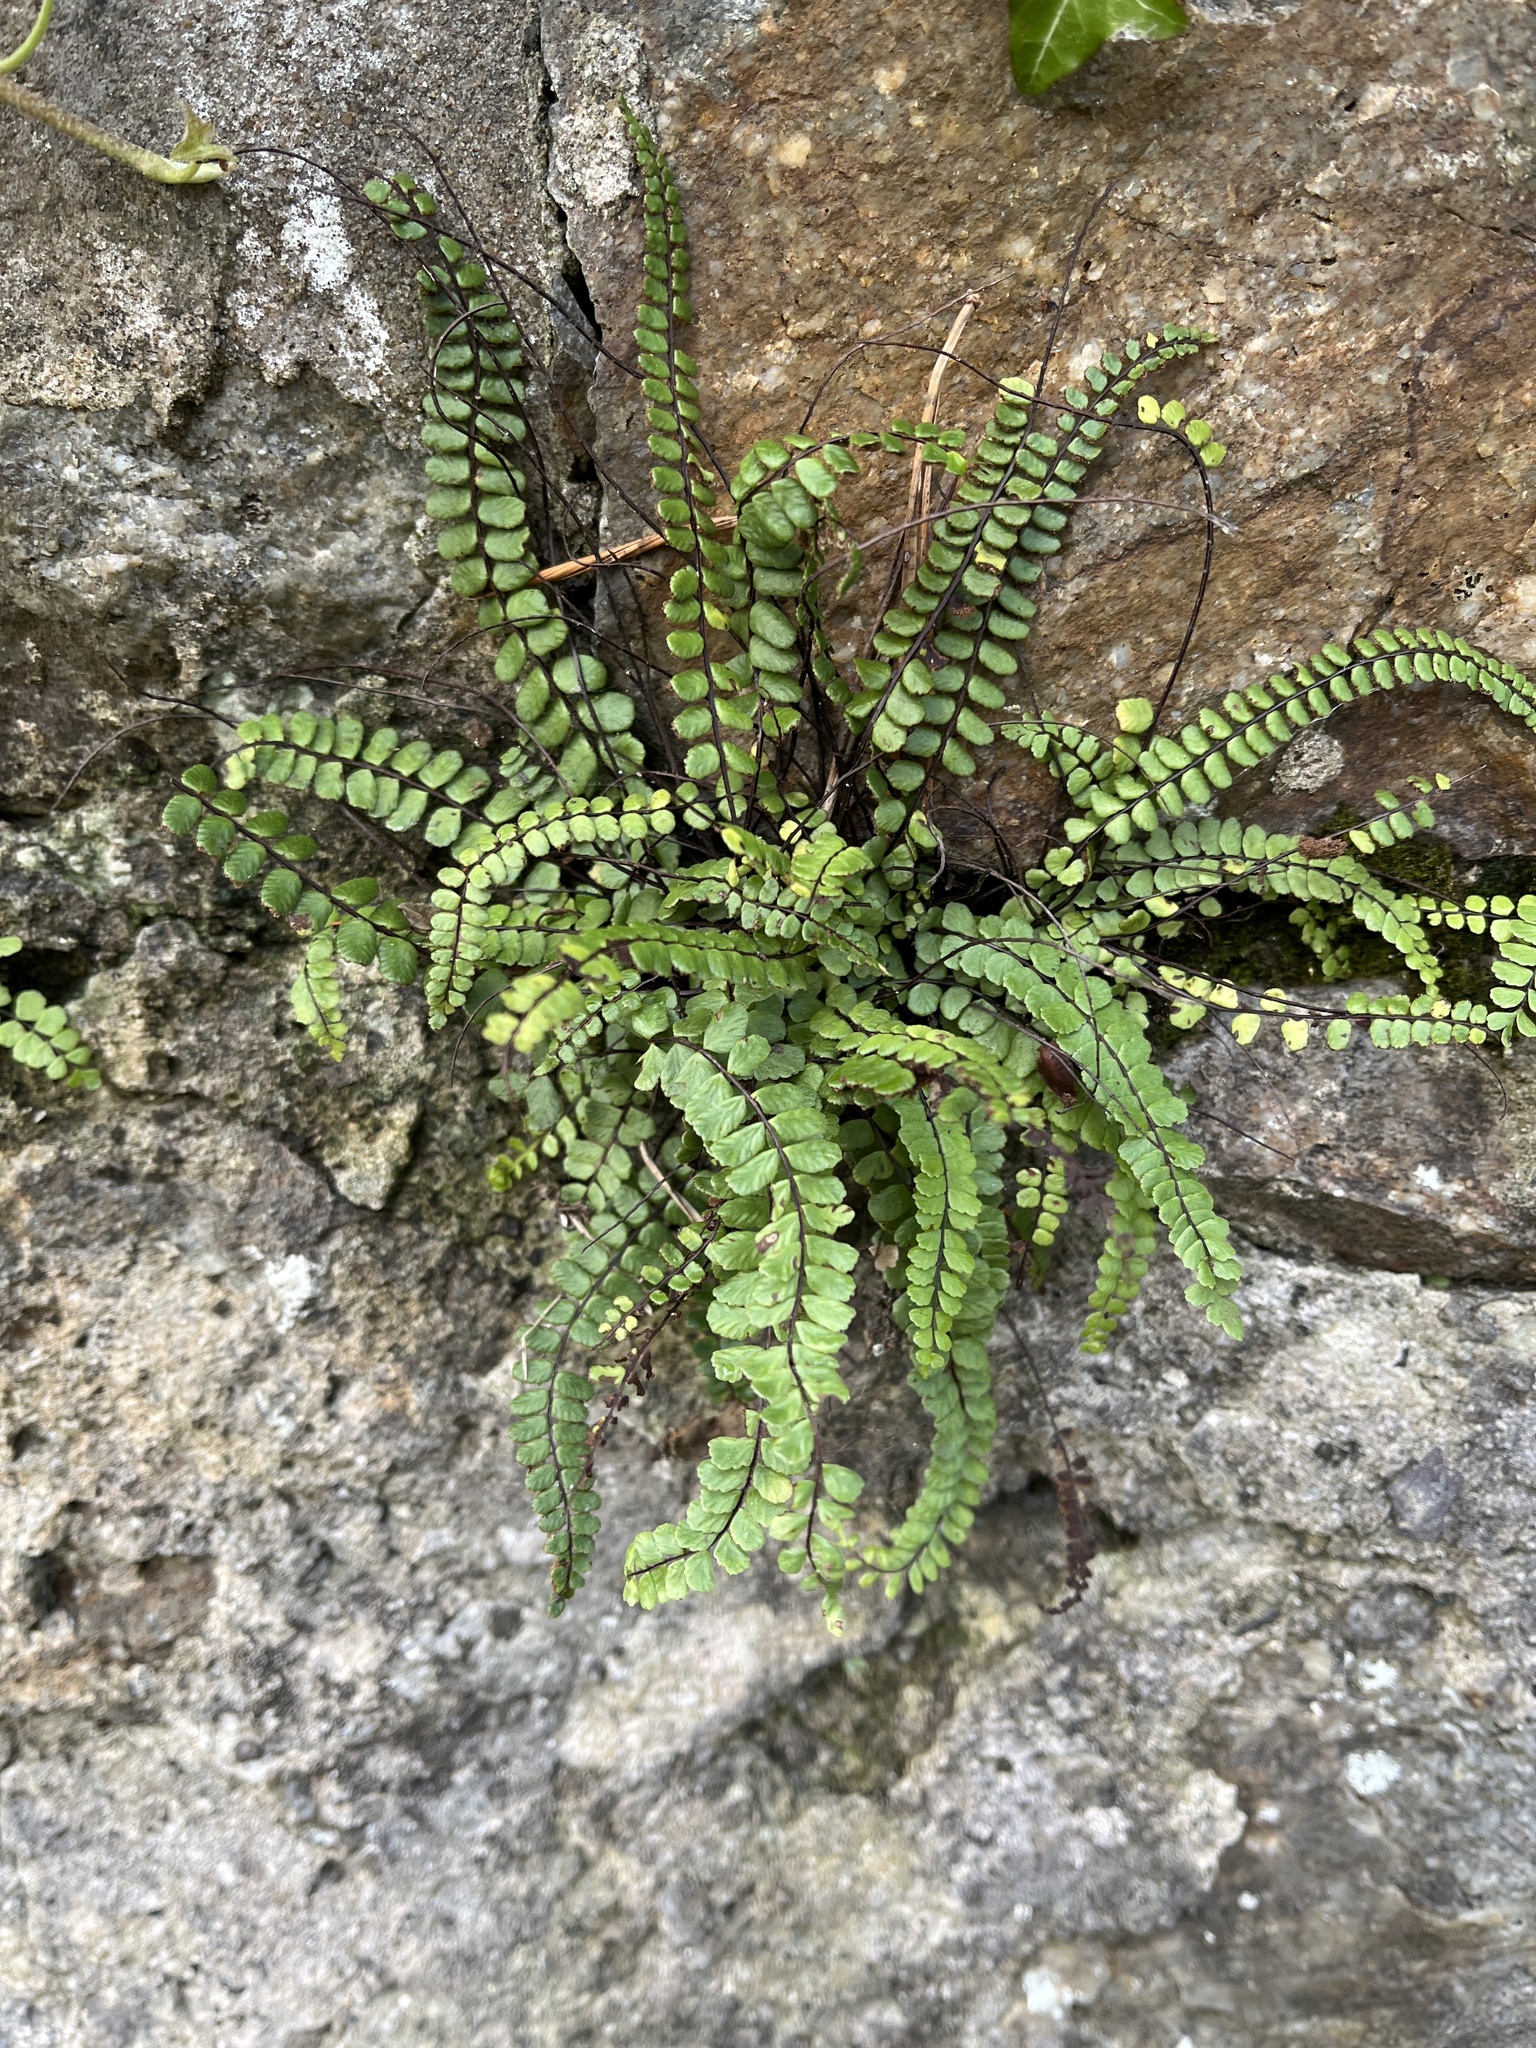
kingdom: Plantae
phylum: Tracheophyta
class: Polypodiopsida
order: Polypodiales
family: Aspleniaceae
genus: Asplenium
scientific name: Asplenium trichomanes
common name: Maidenhair spleenwort
